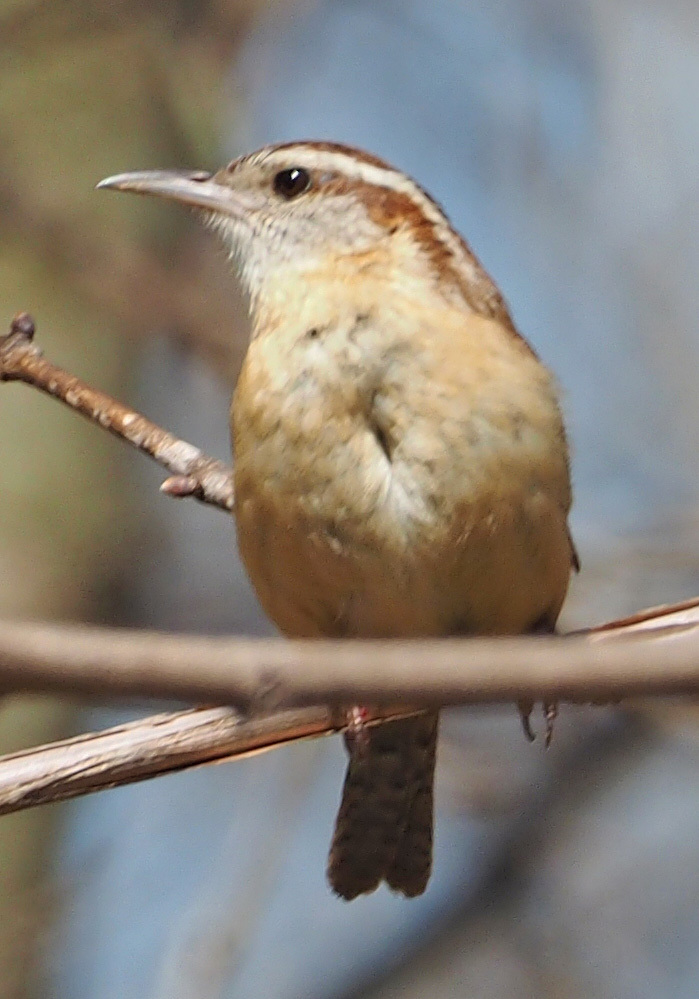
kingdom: Animalia
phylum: Chordata
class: Aves
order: Passeriformes
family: Troglodytidae
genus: Thryothorus
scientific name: Thryothorus ludovicianus
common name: Carolina wren
